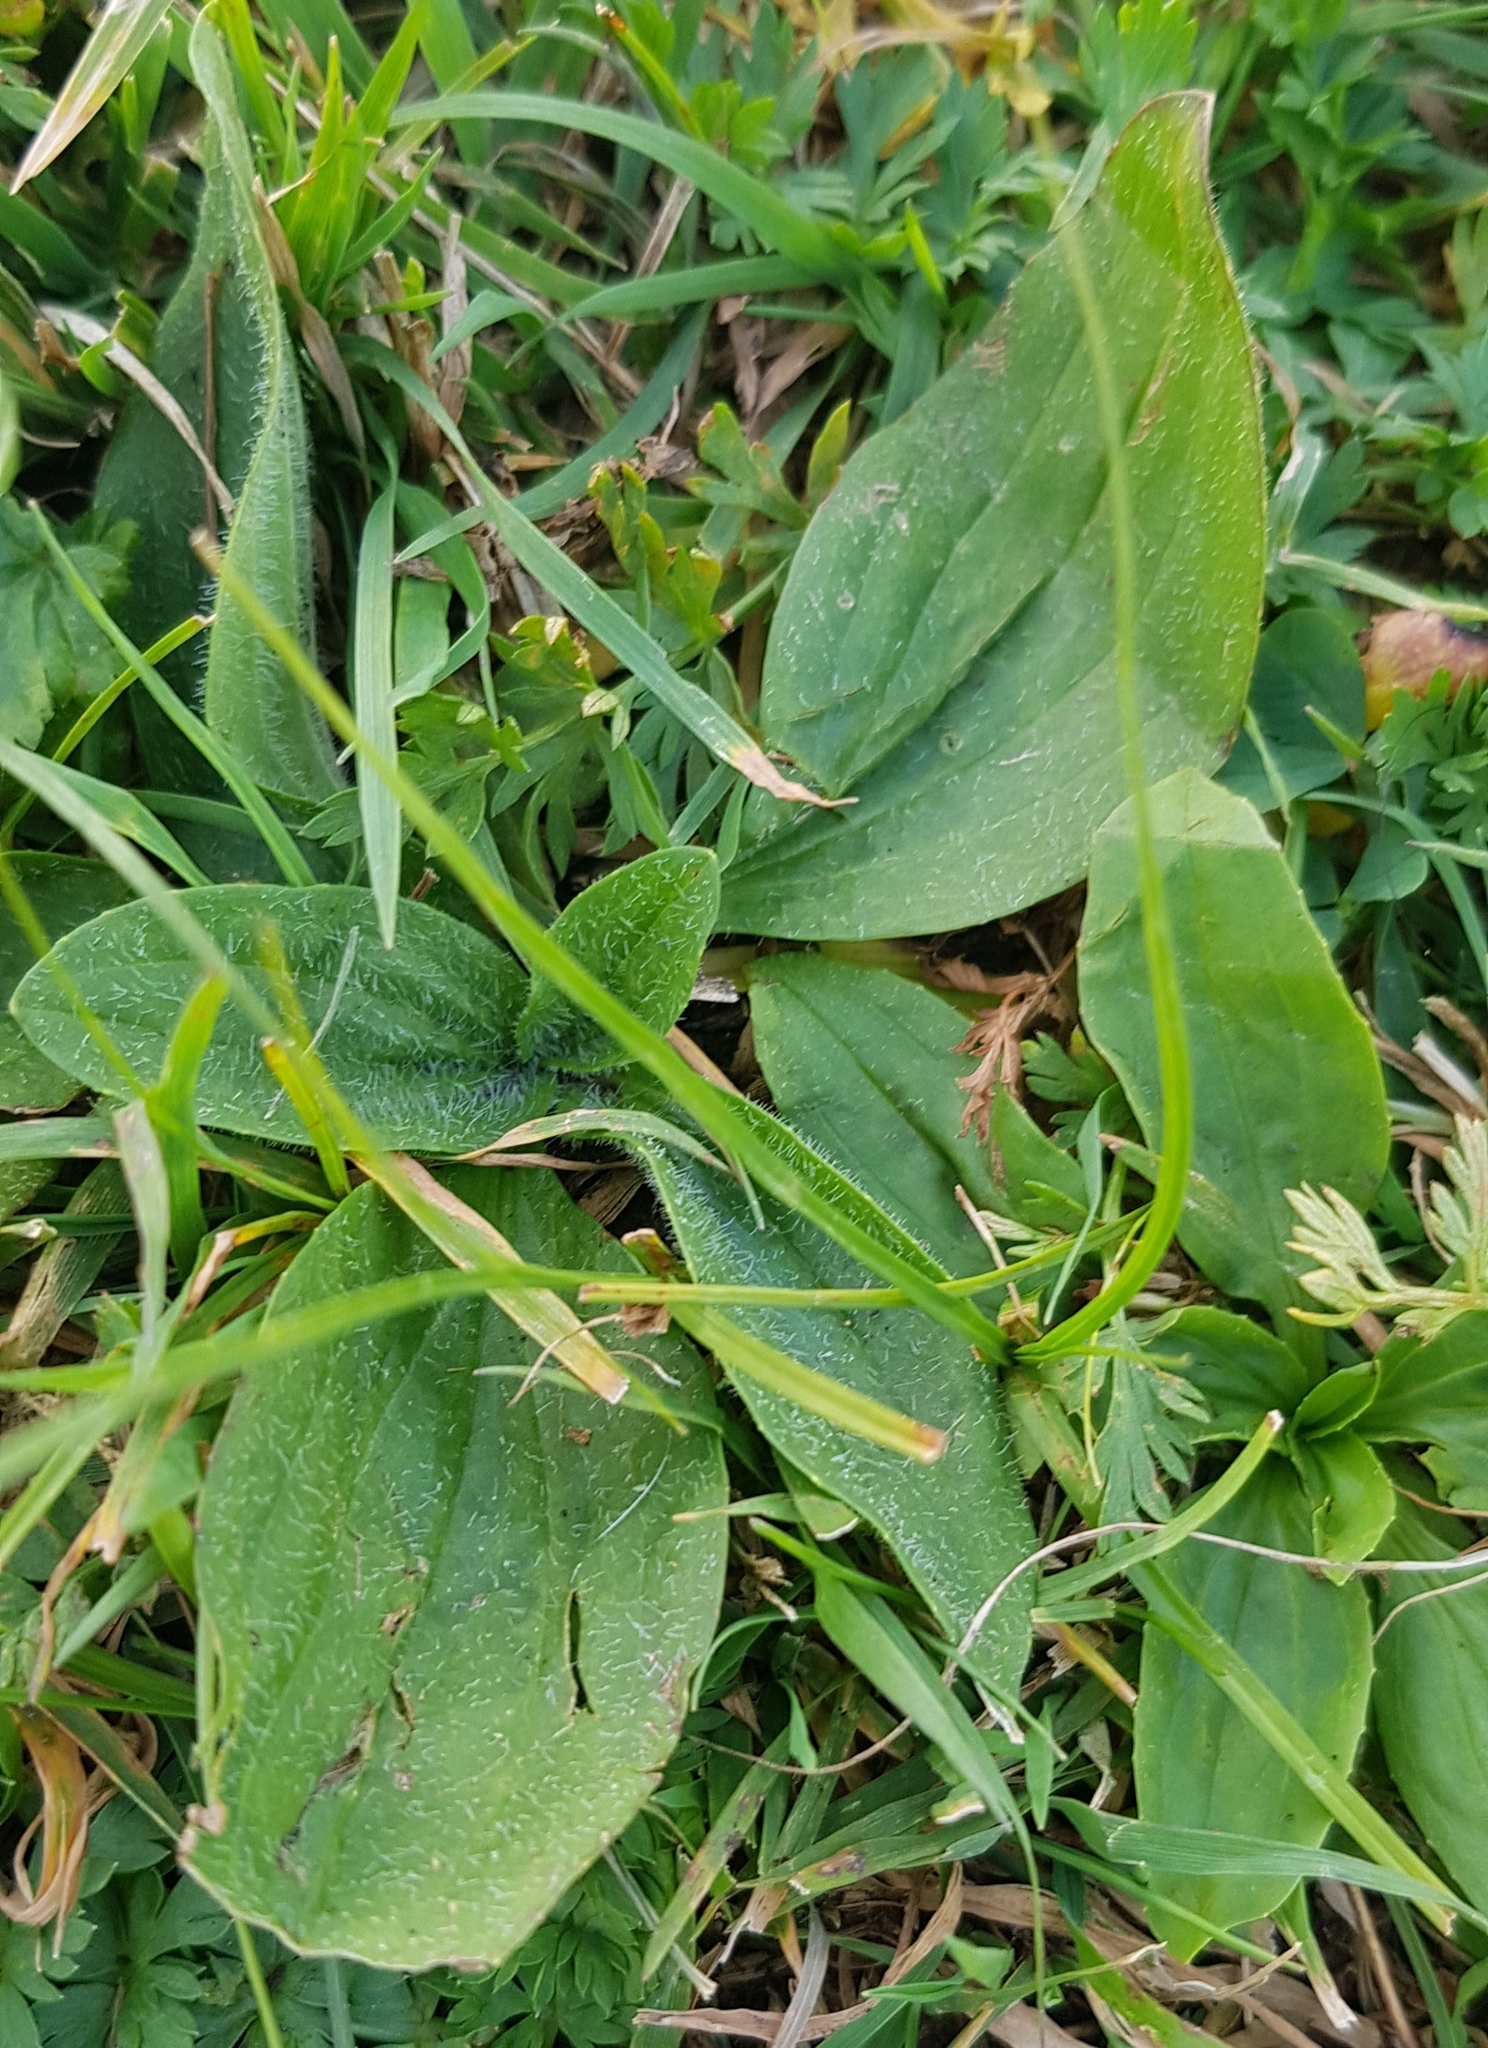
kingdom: Plantae
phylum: Tracheophyta
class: Magnoliopsida
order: Lamiales
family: Plantaginaceae
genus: Plantago
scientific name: Plantago media
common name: Hoary plantain
